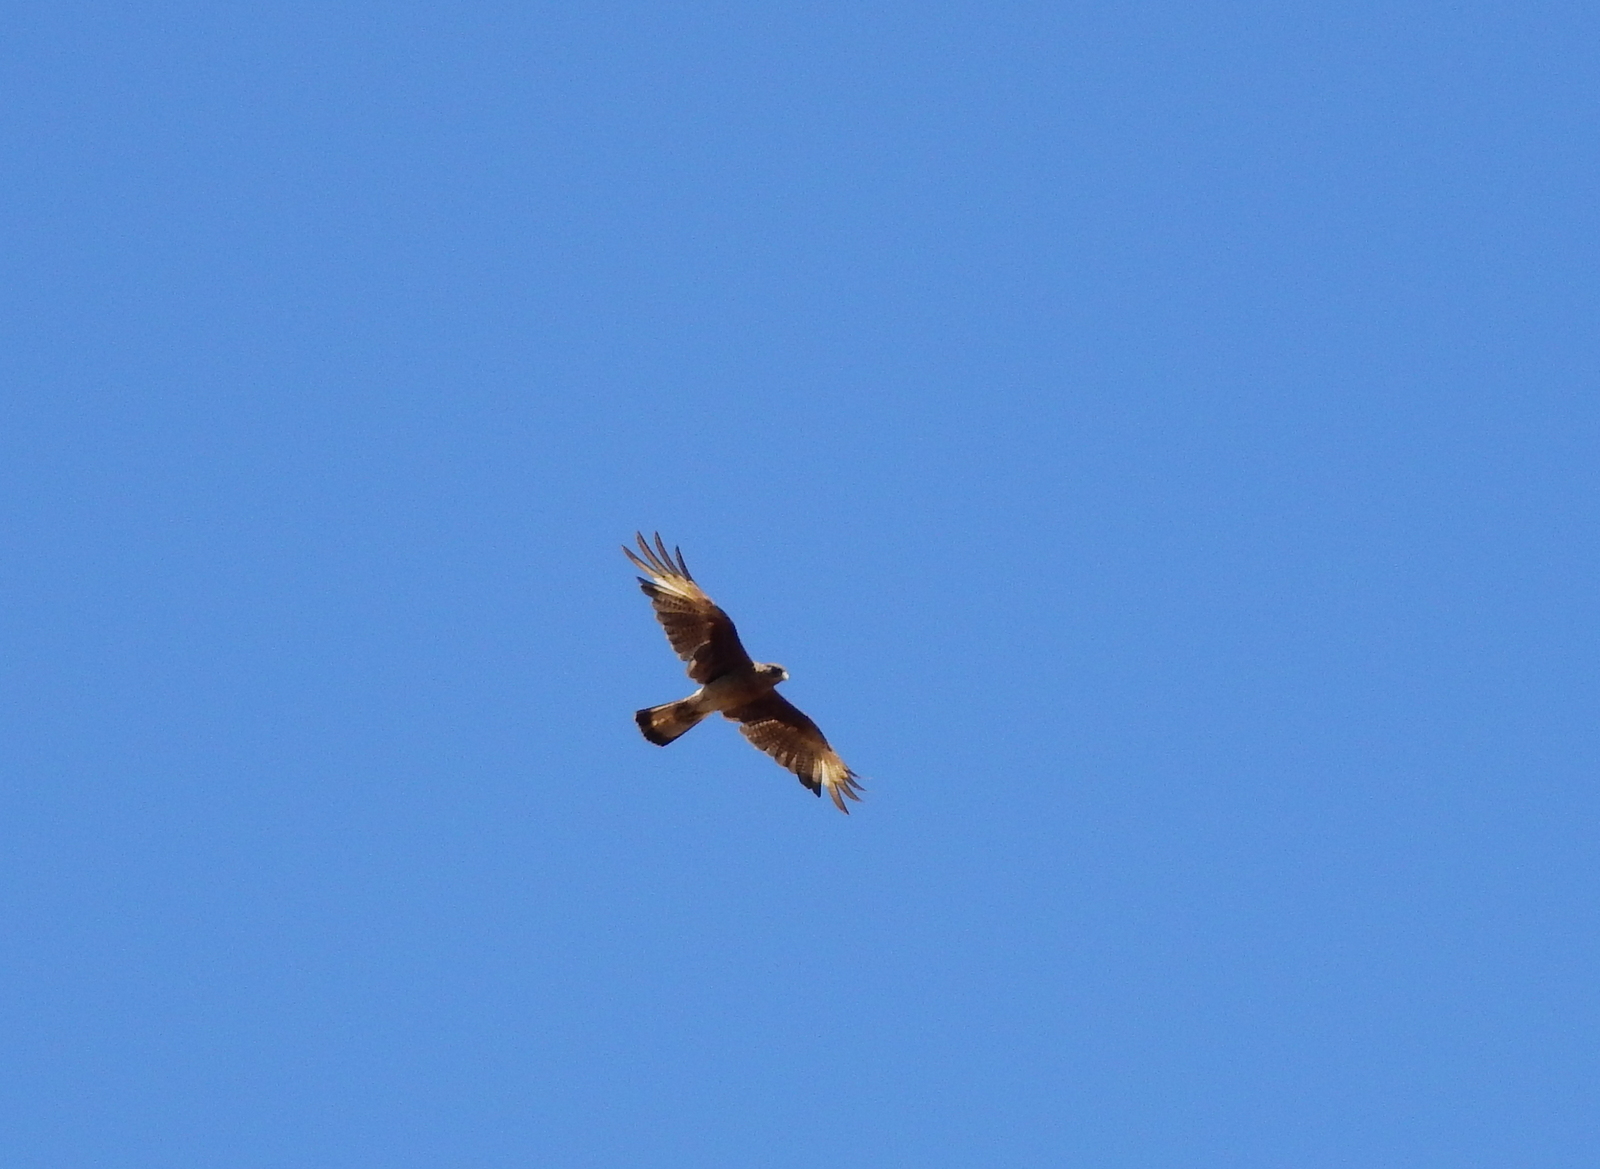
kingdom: Animalia
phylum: Chordata
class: Aves
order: Falconiformes
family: Falconidae
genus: Daptrius
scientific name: Daptrius
